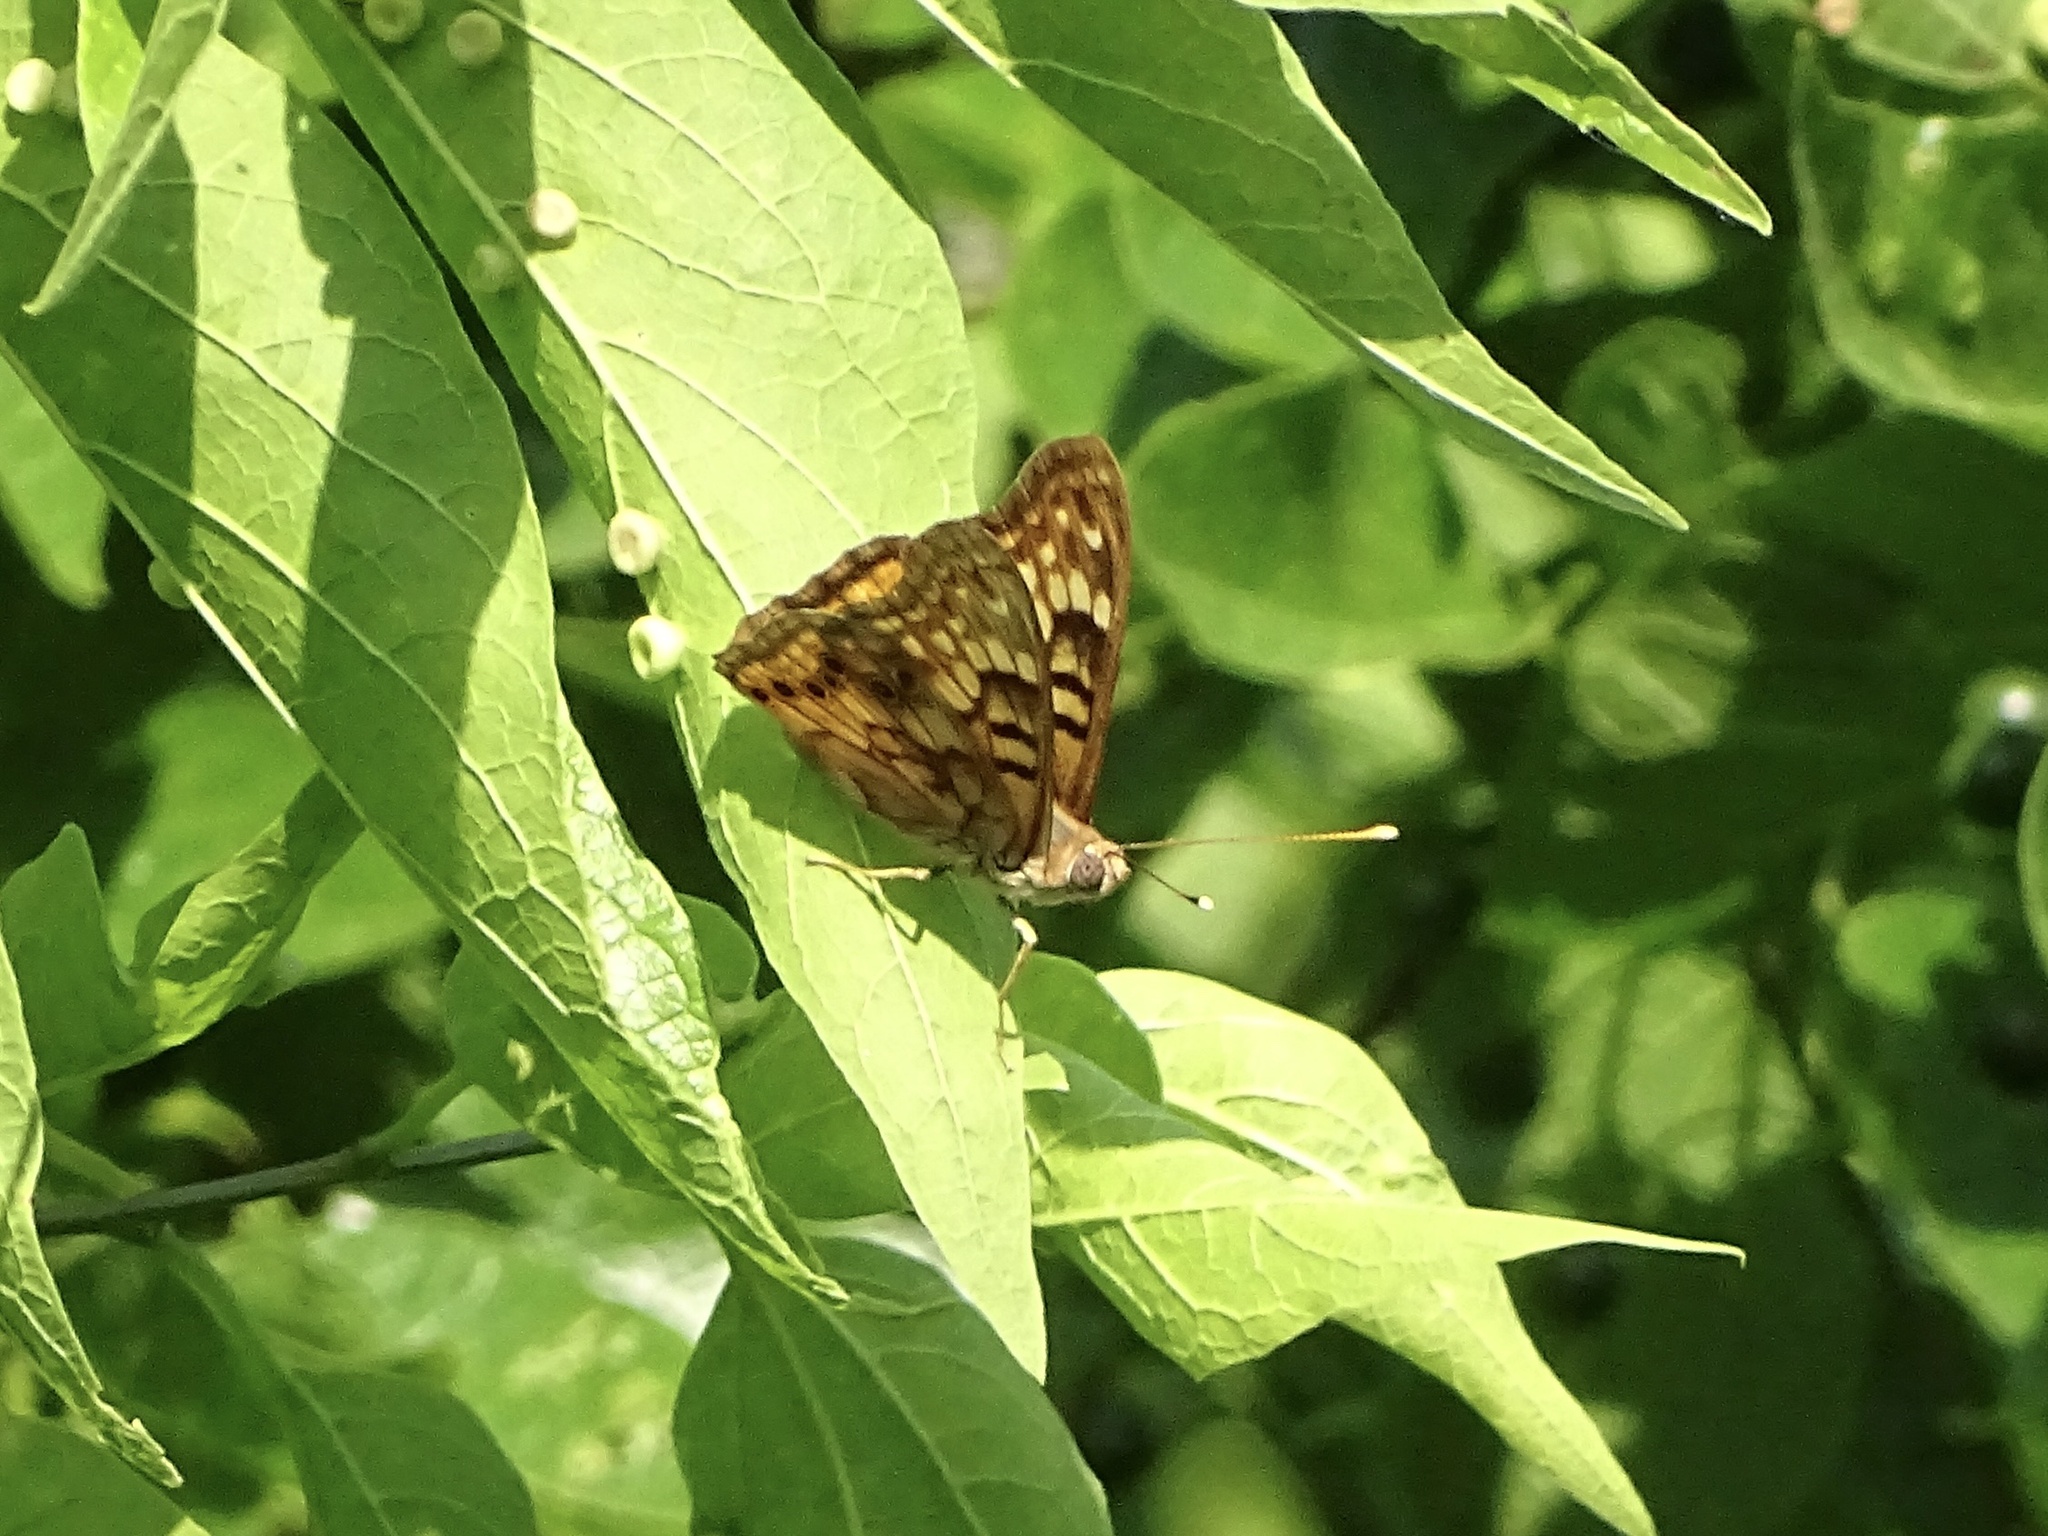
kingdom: Animalia
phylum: Arthropoda
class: Insecta
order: Lepidoptera
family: Nymphalidae
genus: Asterocampa
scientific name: Asterocampa clyton
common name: Tawny emperor
